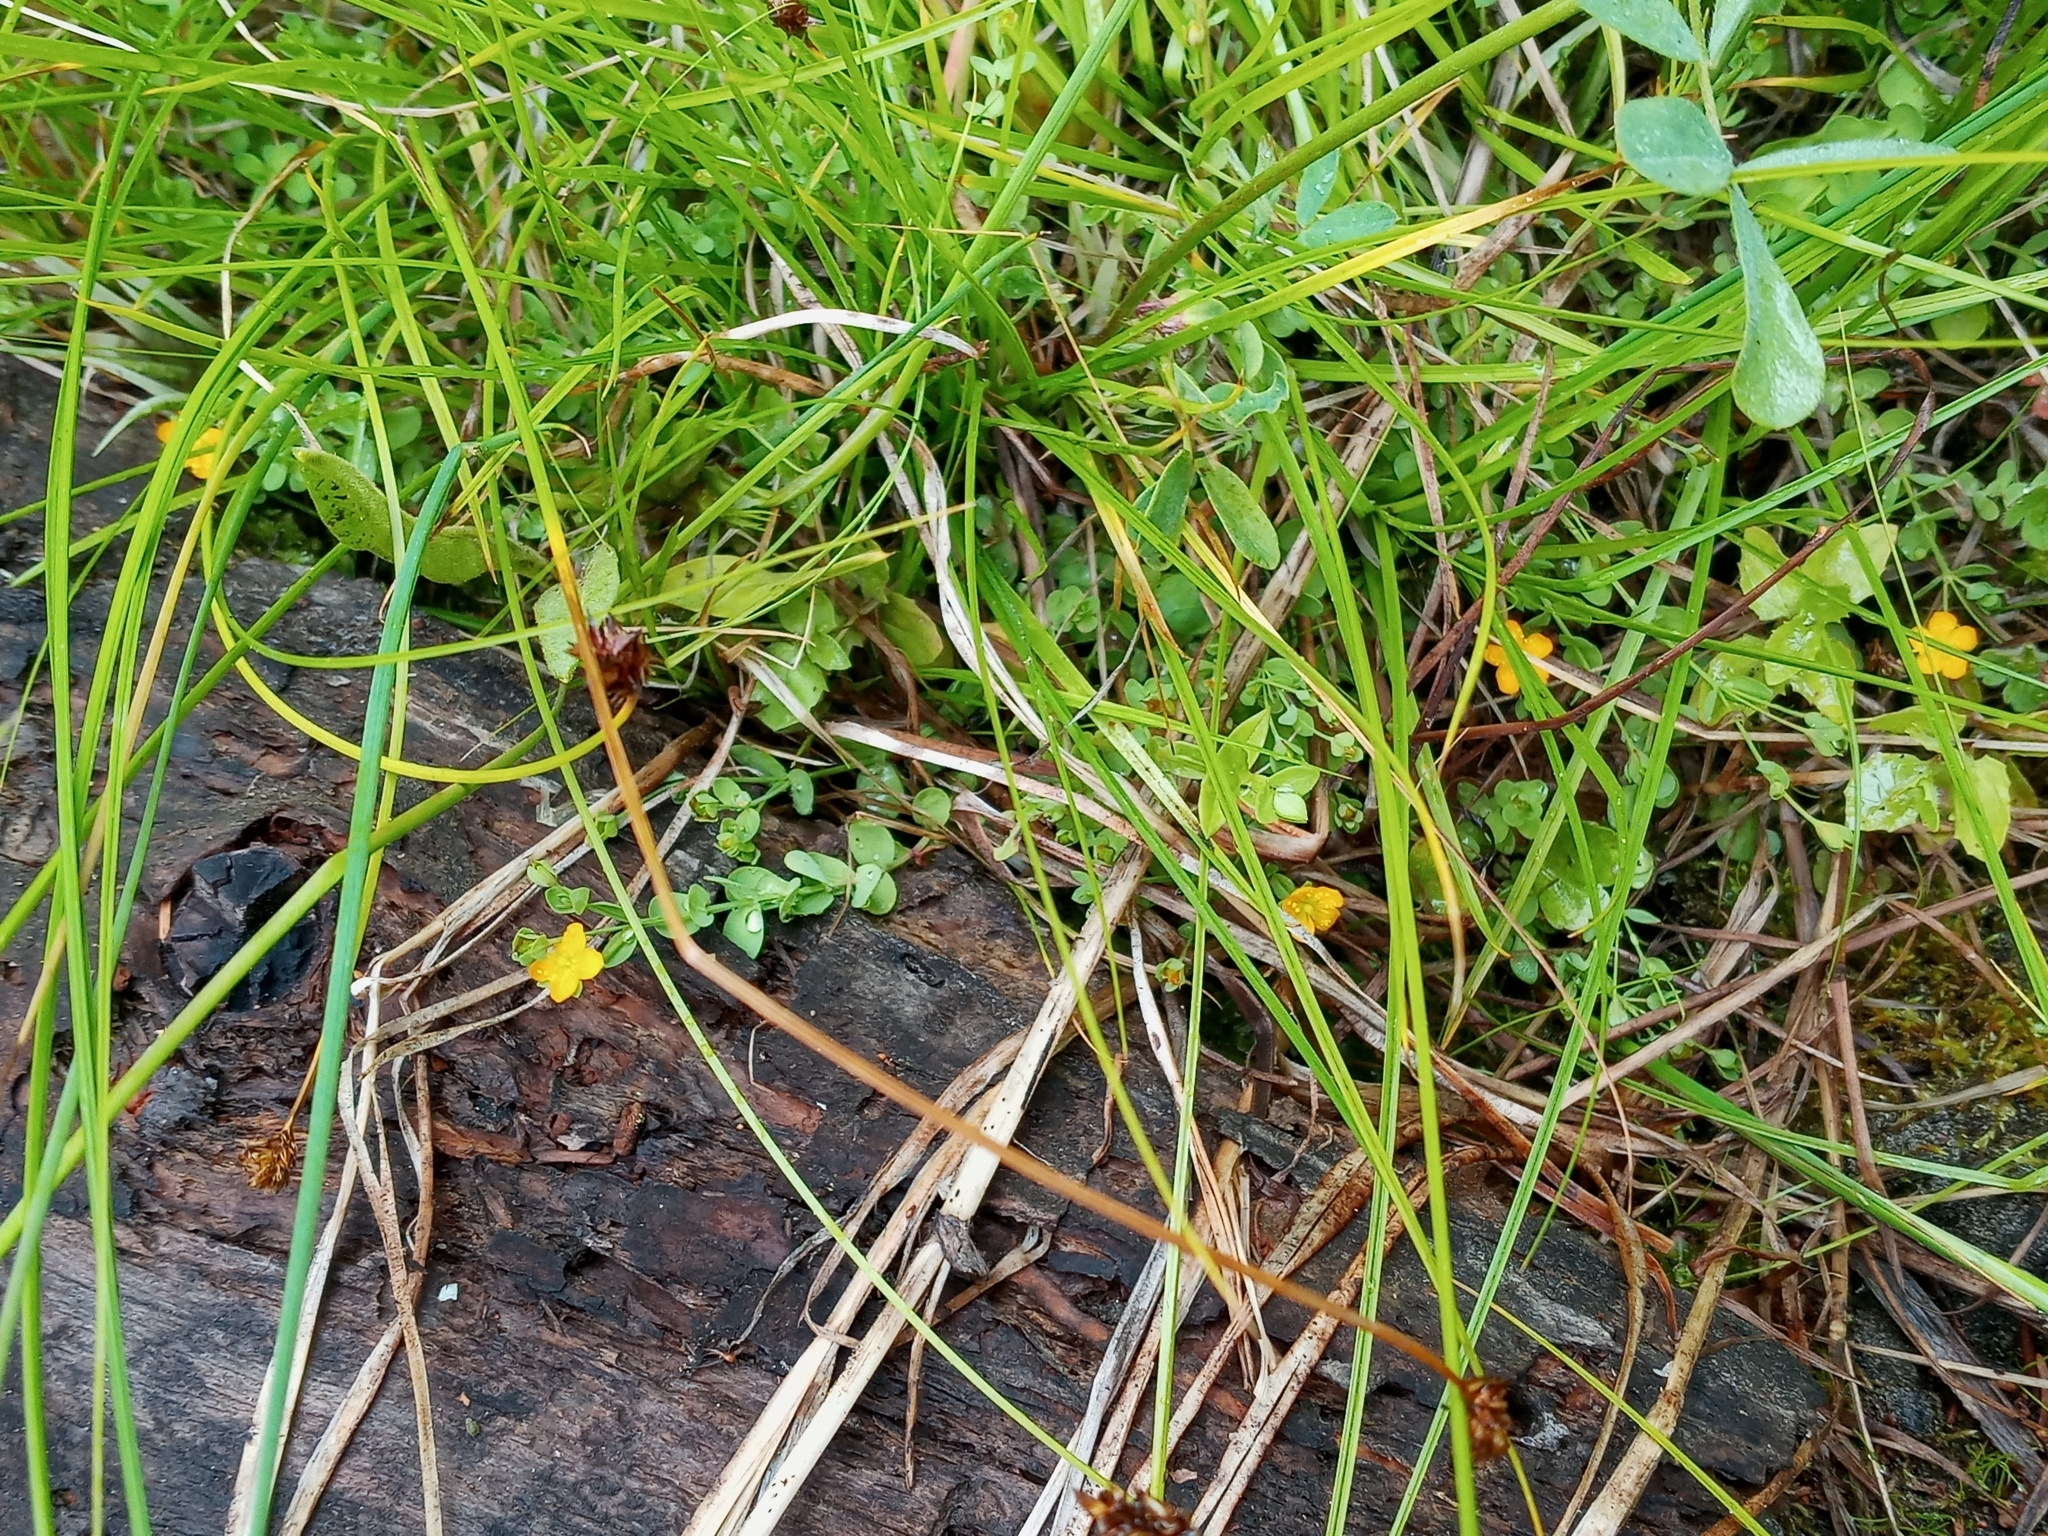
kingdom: Plantae
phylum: Tracheophyta
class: Magnoliopsida
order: Malpighiales
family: Hypericaceae
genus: Hypericum
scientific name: Hypericum anagalloides
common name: Bog st. john's-wort
